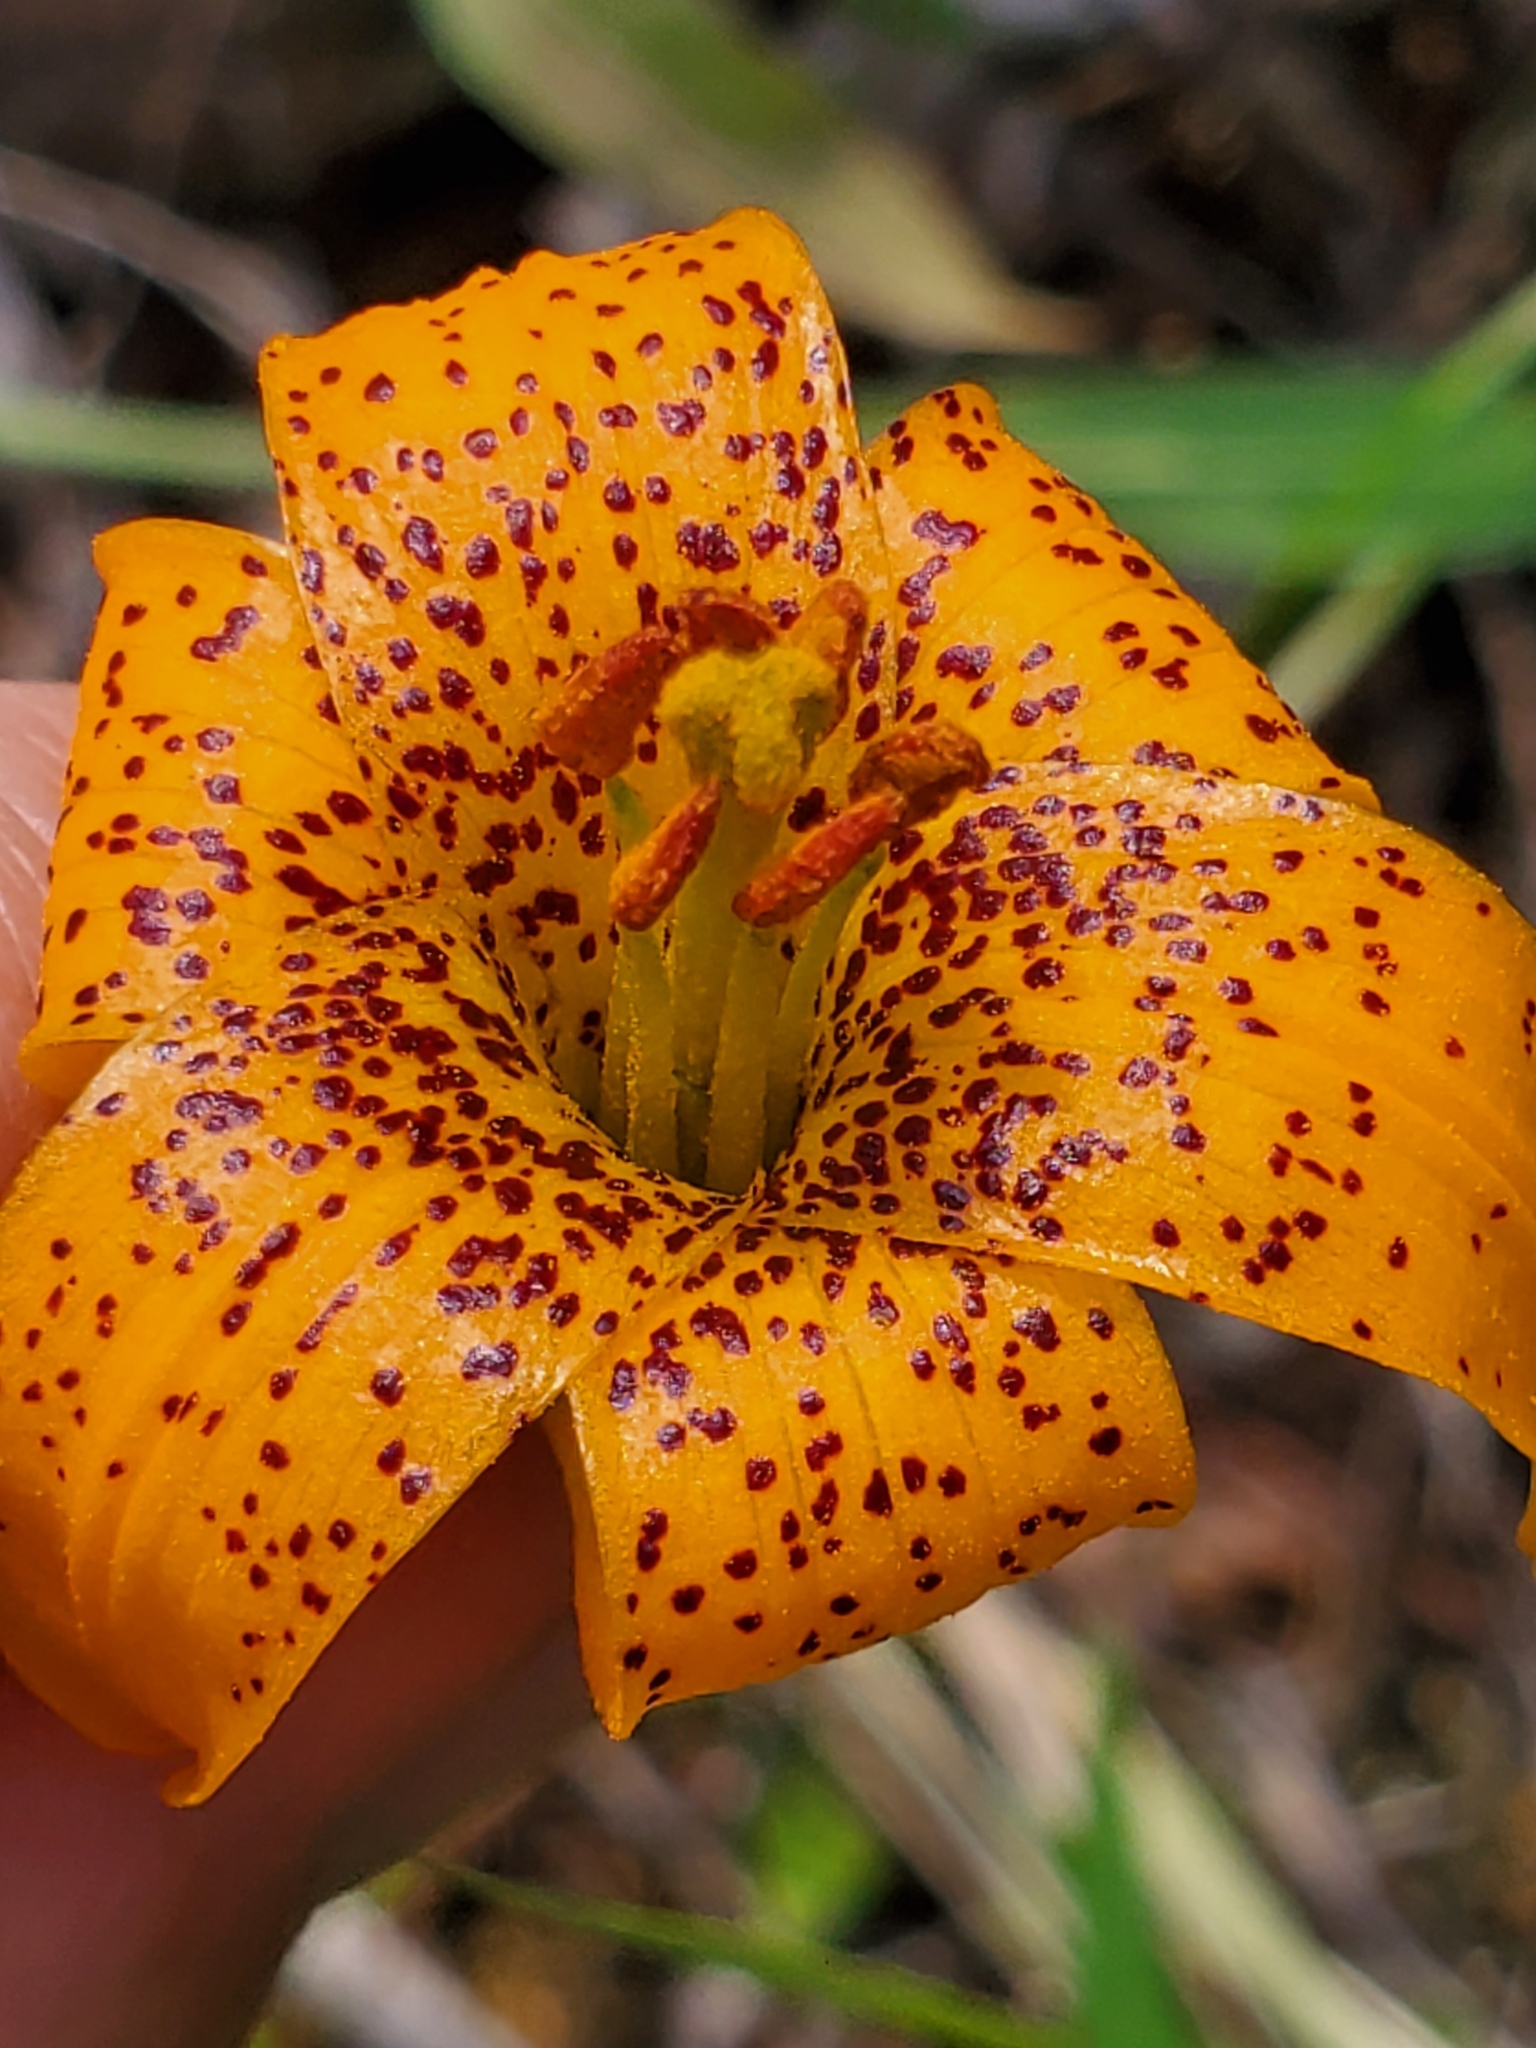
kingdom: Plantae
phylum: Tracheophyta
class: Liliopsida
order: Liliales
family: Liliaceae
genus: Lilium
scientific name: Lilium columbianum
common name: Columbia lily
